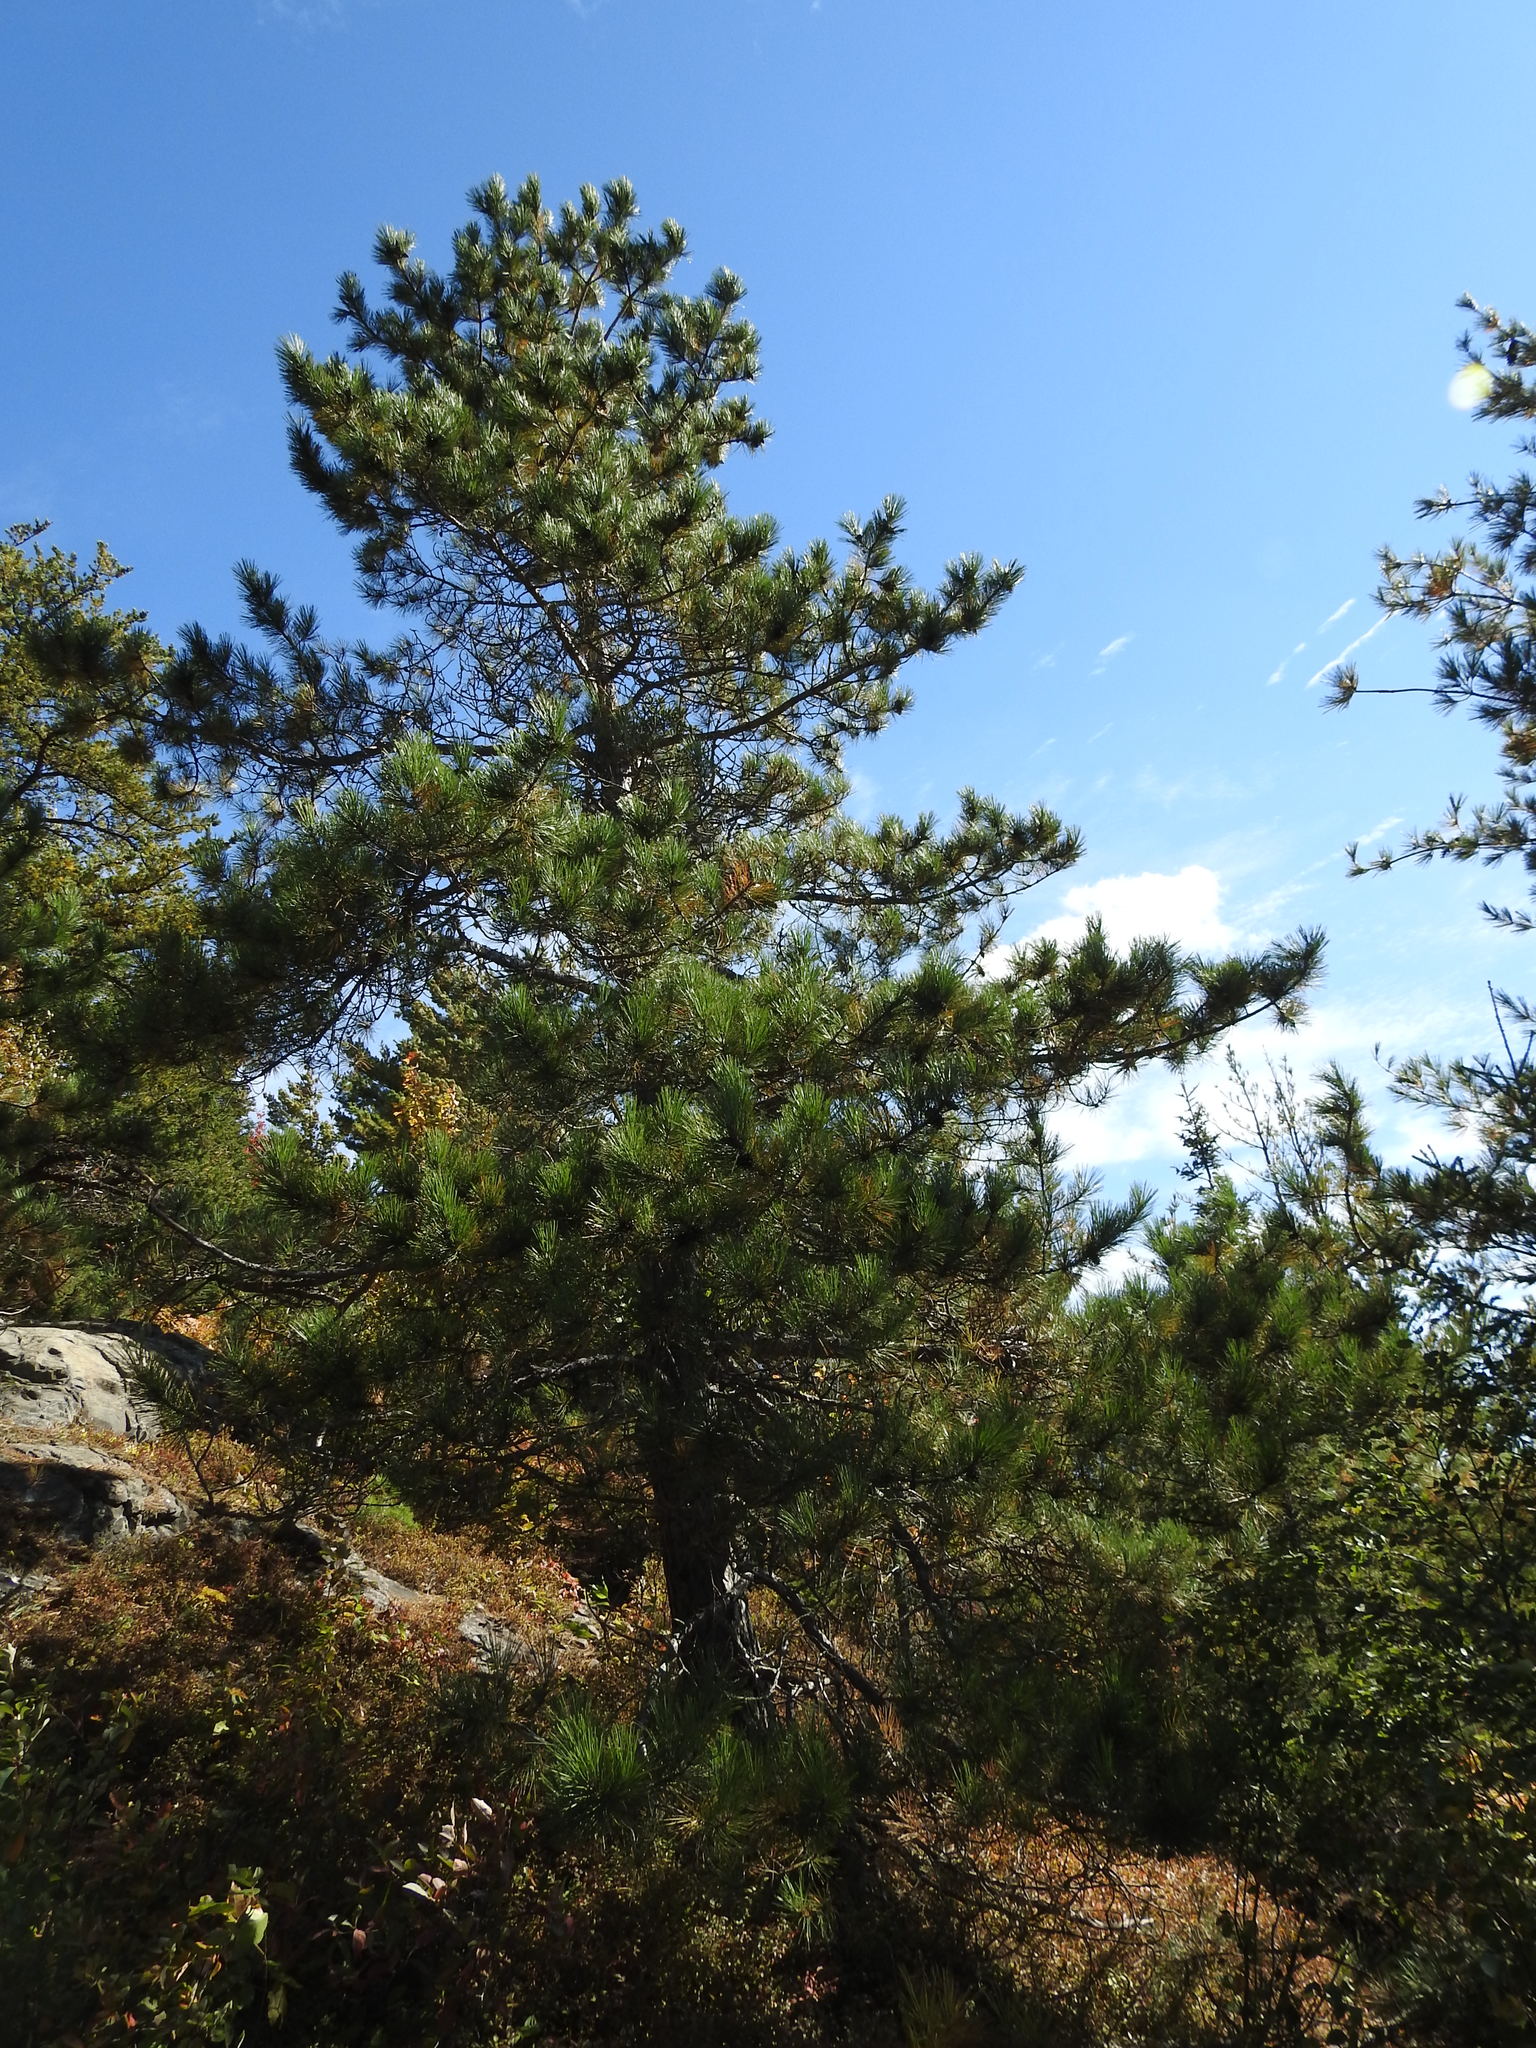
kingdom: Plantae
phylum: Tracheophyta
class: Pinopsida
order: Pinales
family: Pinaceae
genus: Pinus
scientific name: Pinus resinosa
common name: Norway pine
